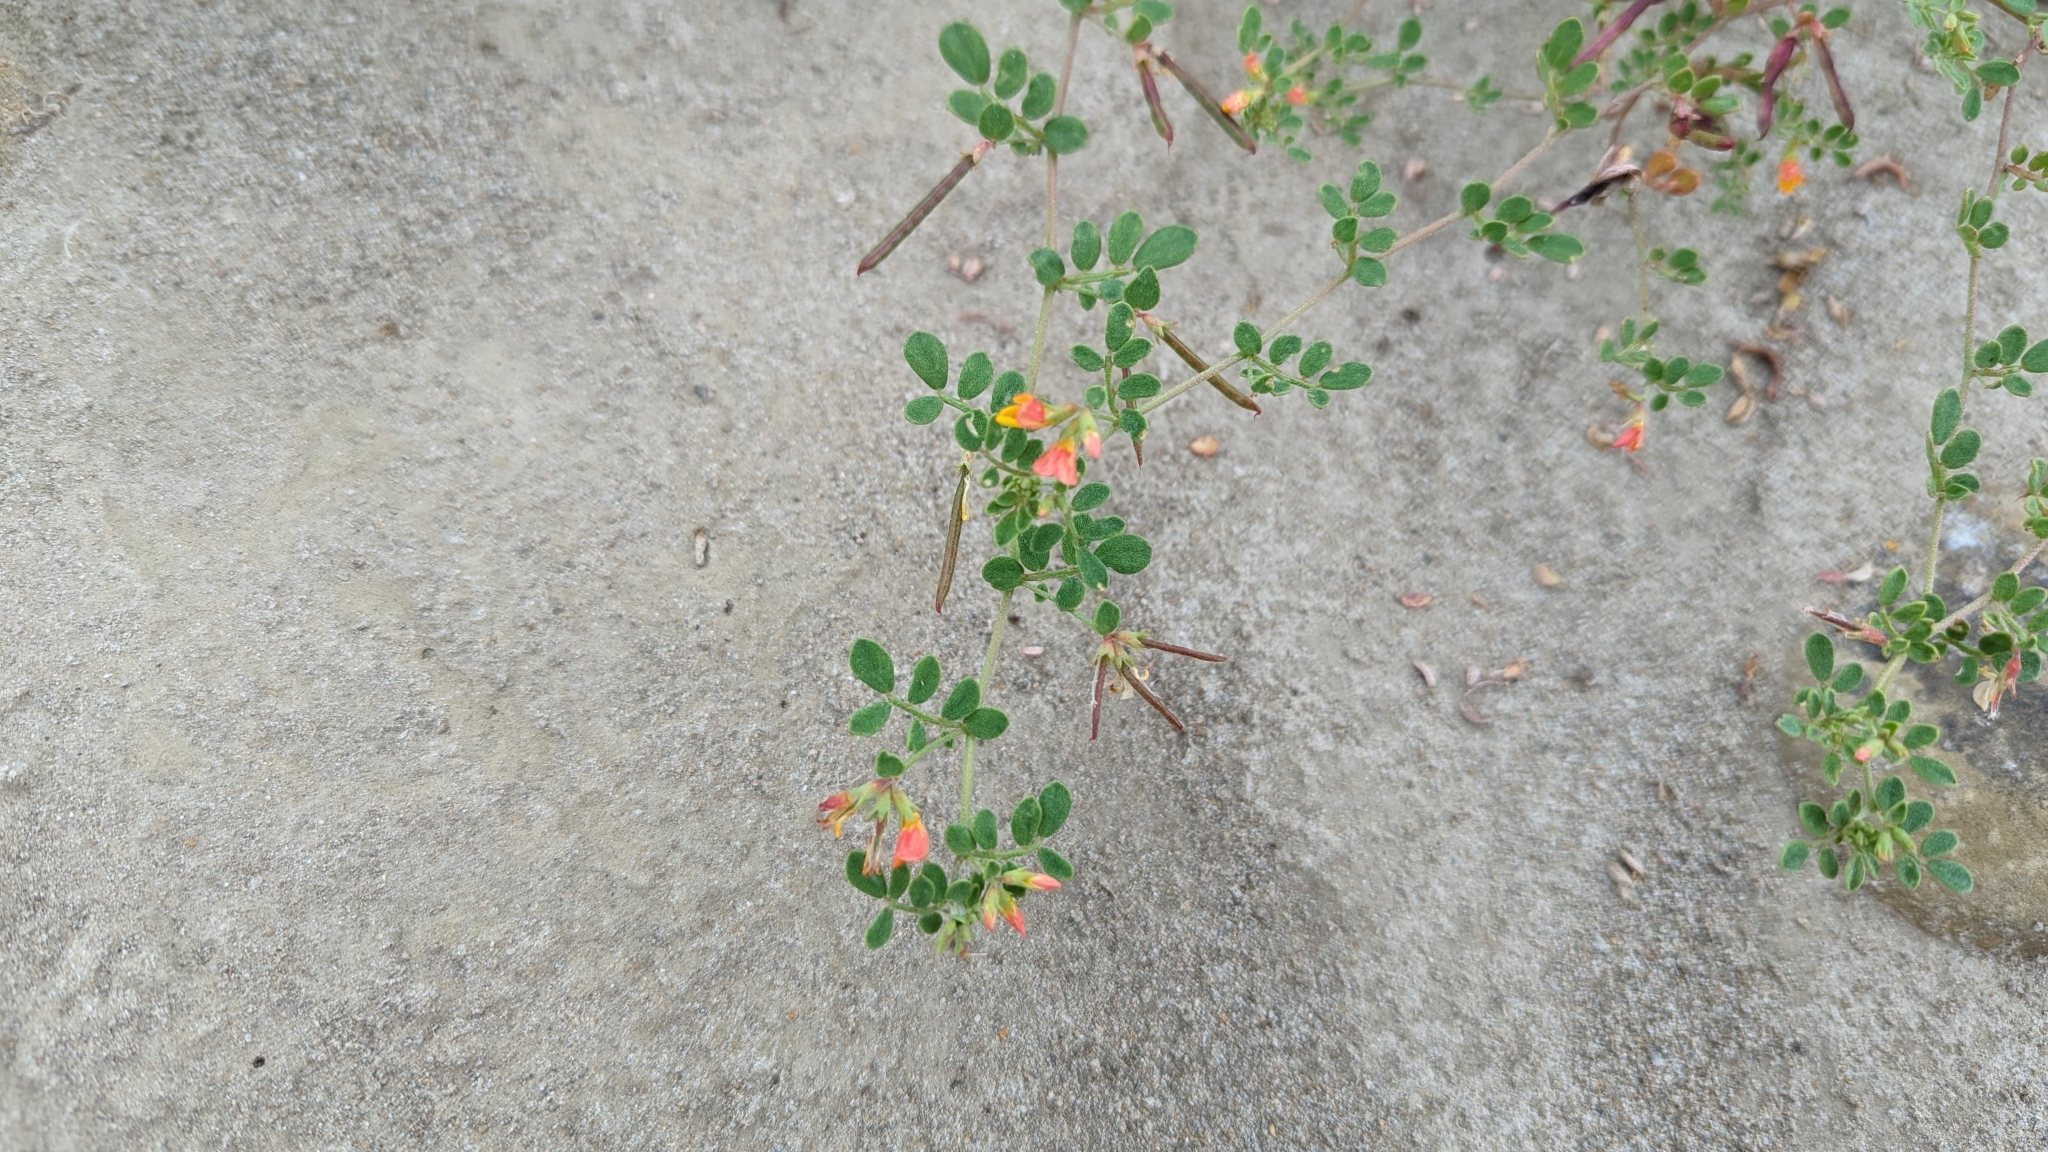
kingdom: Plantae
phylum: Tracheophyta
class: Magnoliopsida
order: Fabales
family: Fabaceae
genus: Acmispon
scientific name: Acmispon maritimus
